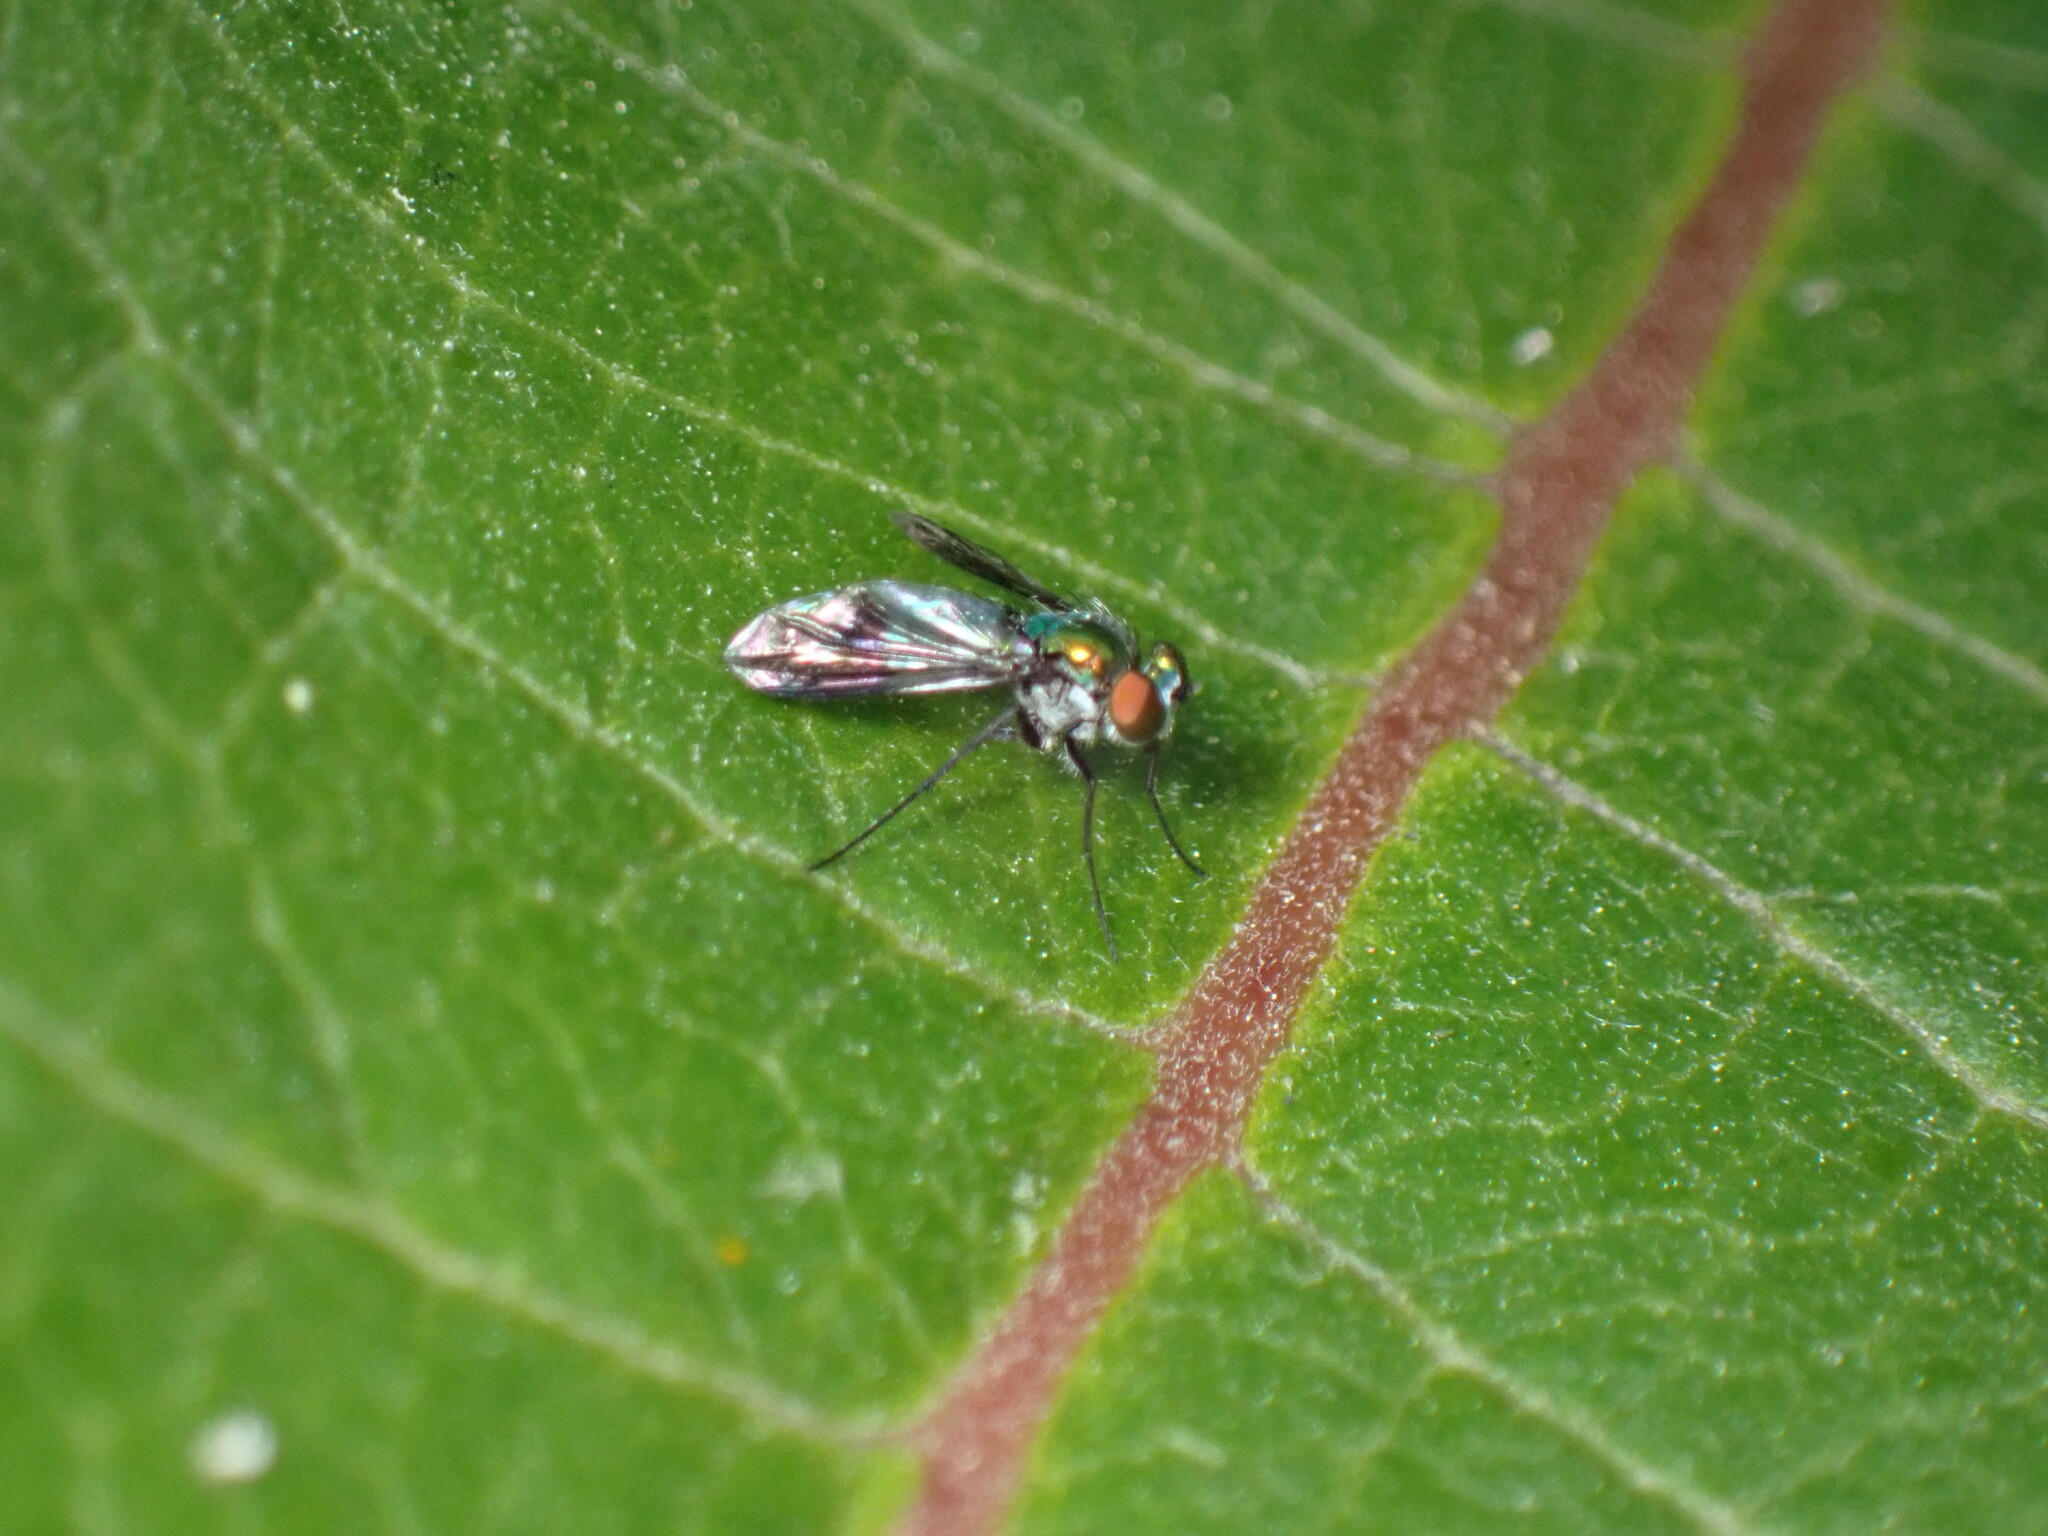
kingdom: Animalia
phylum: Arthropoda
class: Insecta
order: Diptera
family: Dolichopodidae
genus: Condylostylus
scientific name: Condylostylus patibulatus
